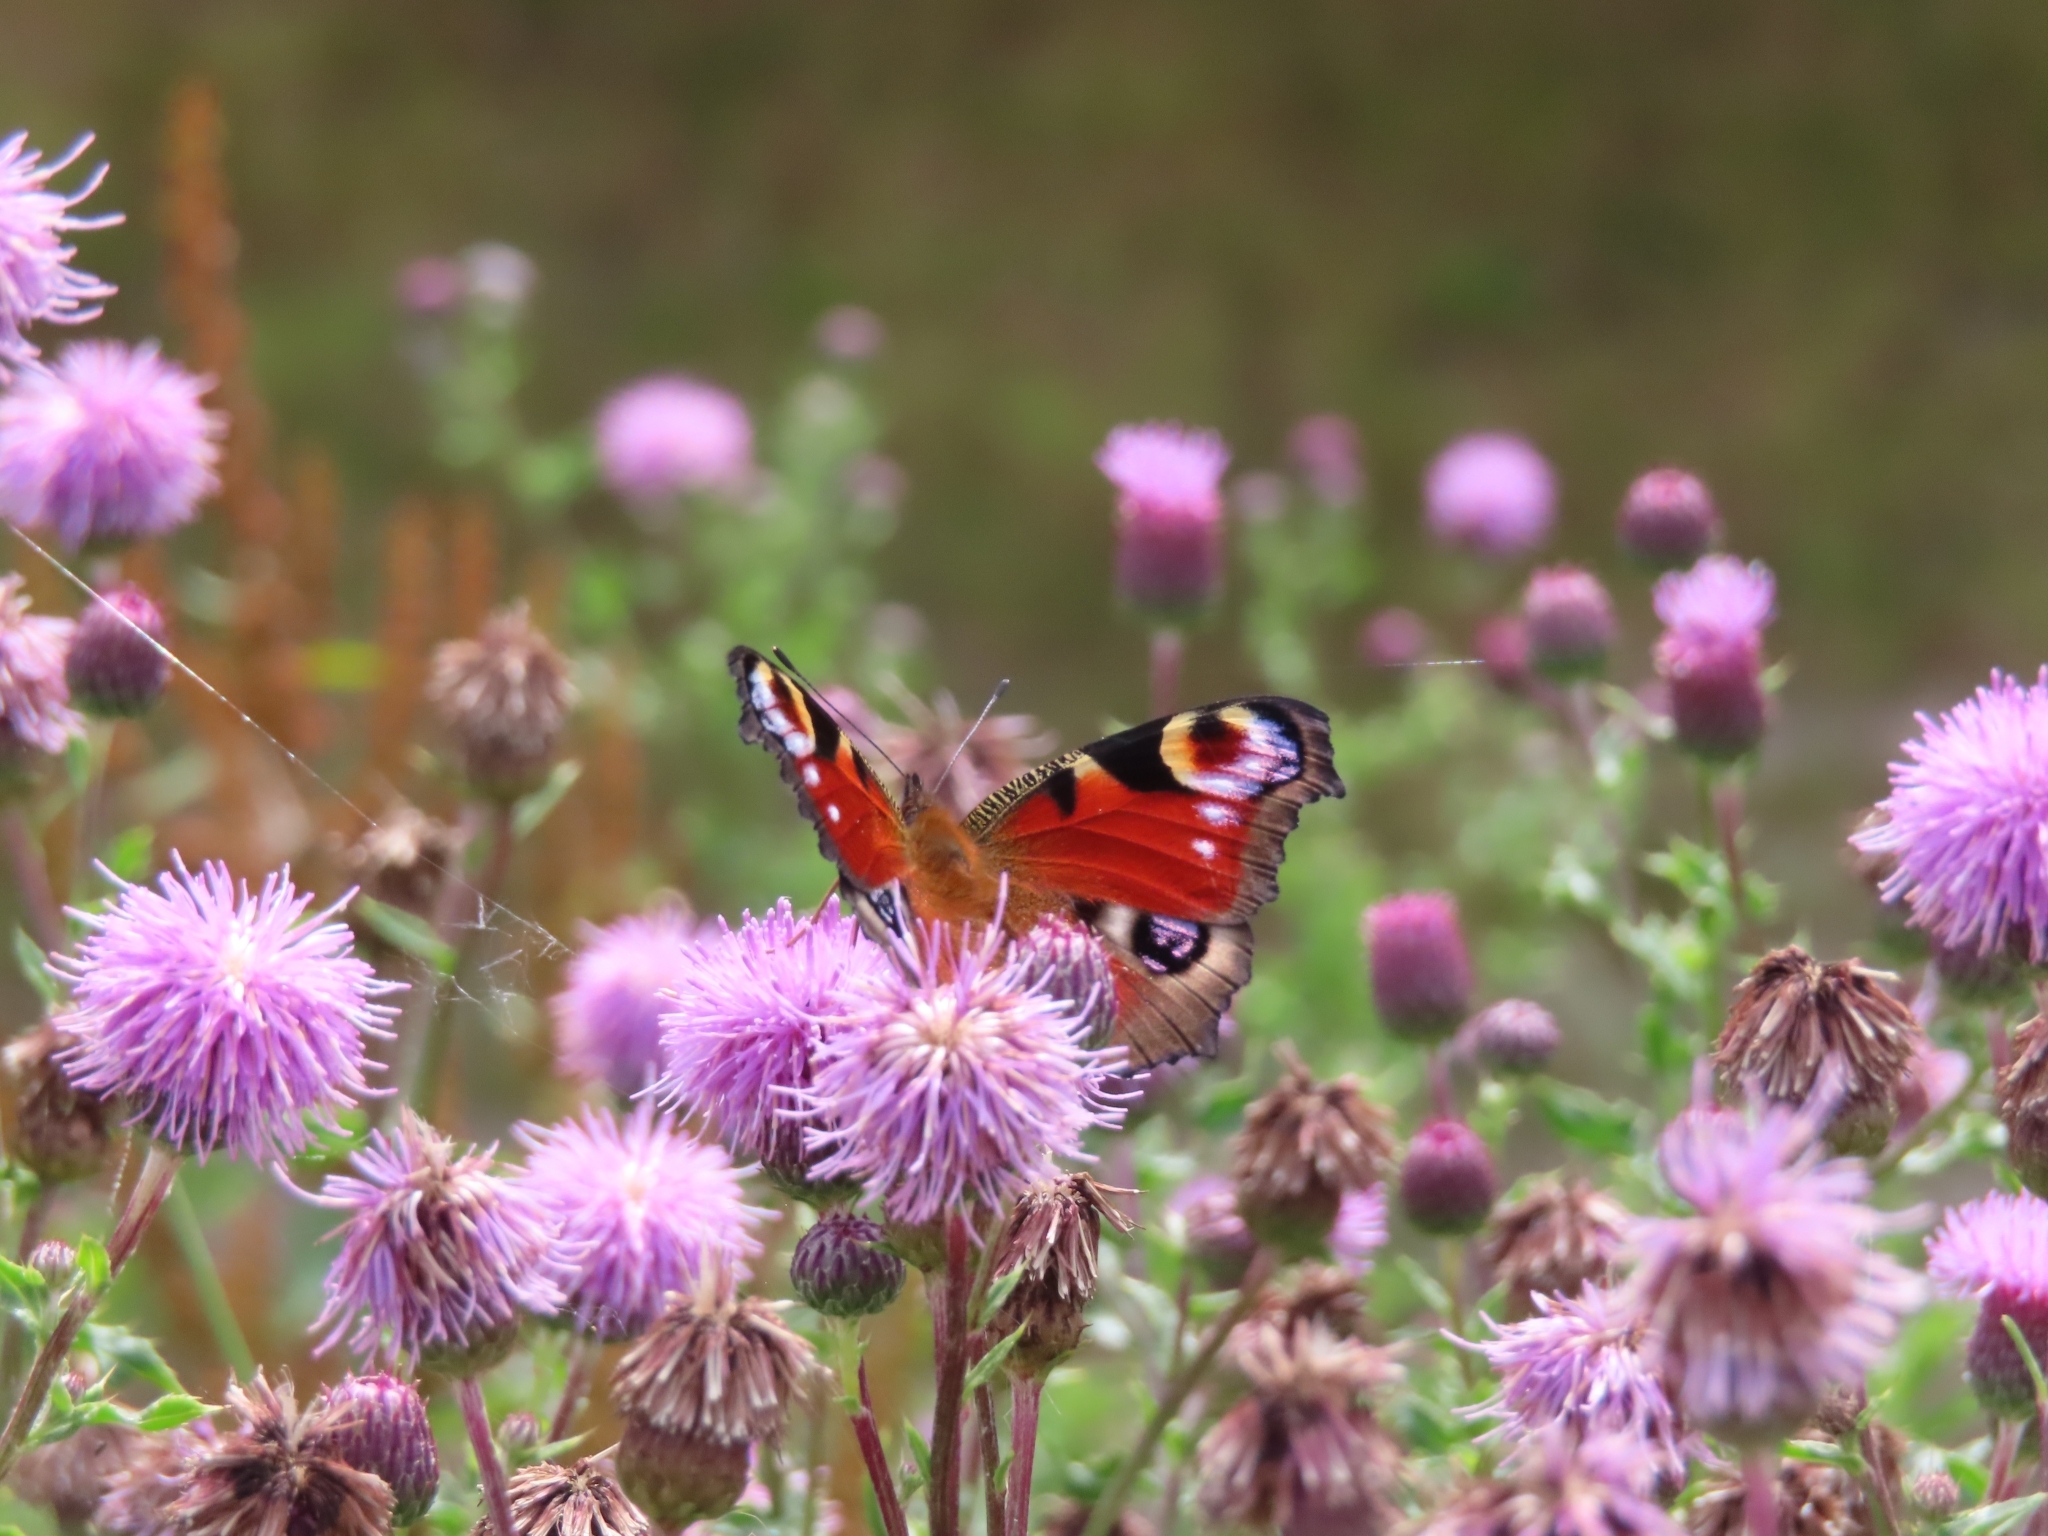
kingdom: Animalia
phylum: Arthropoda
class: Insecta
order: Lepidoptera
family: Nymphalidae
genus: Aglais
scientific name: Aglais io
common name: Peacock
